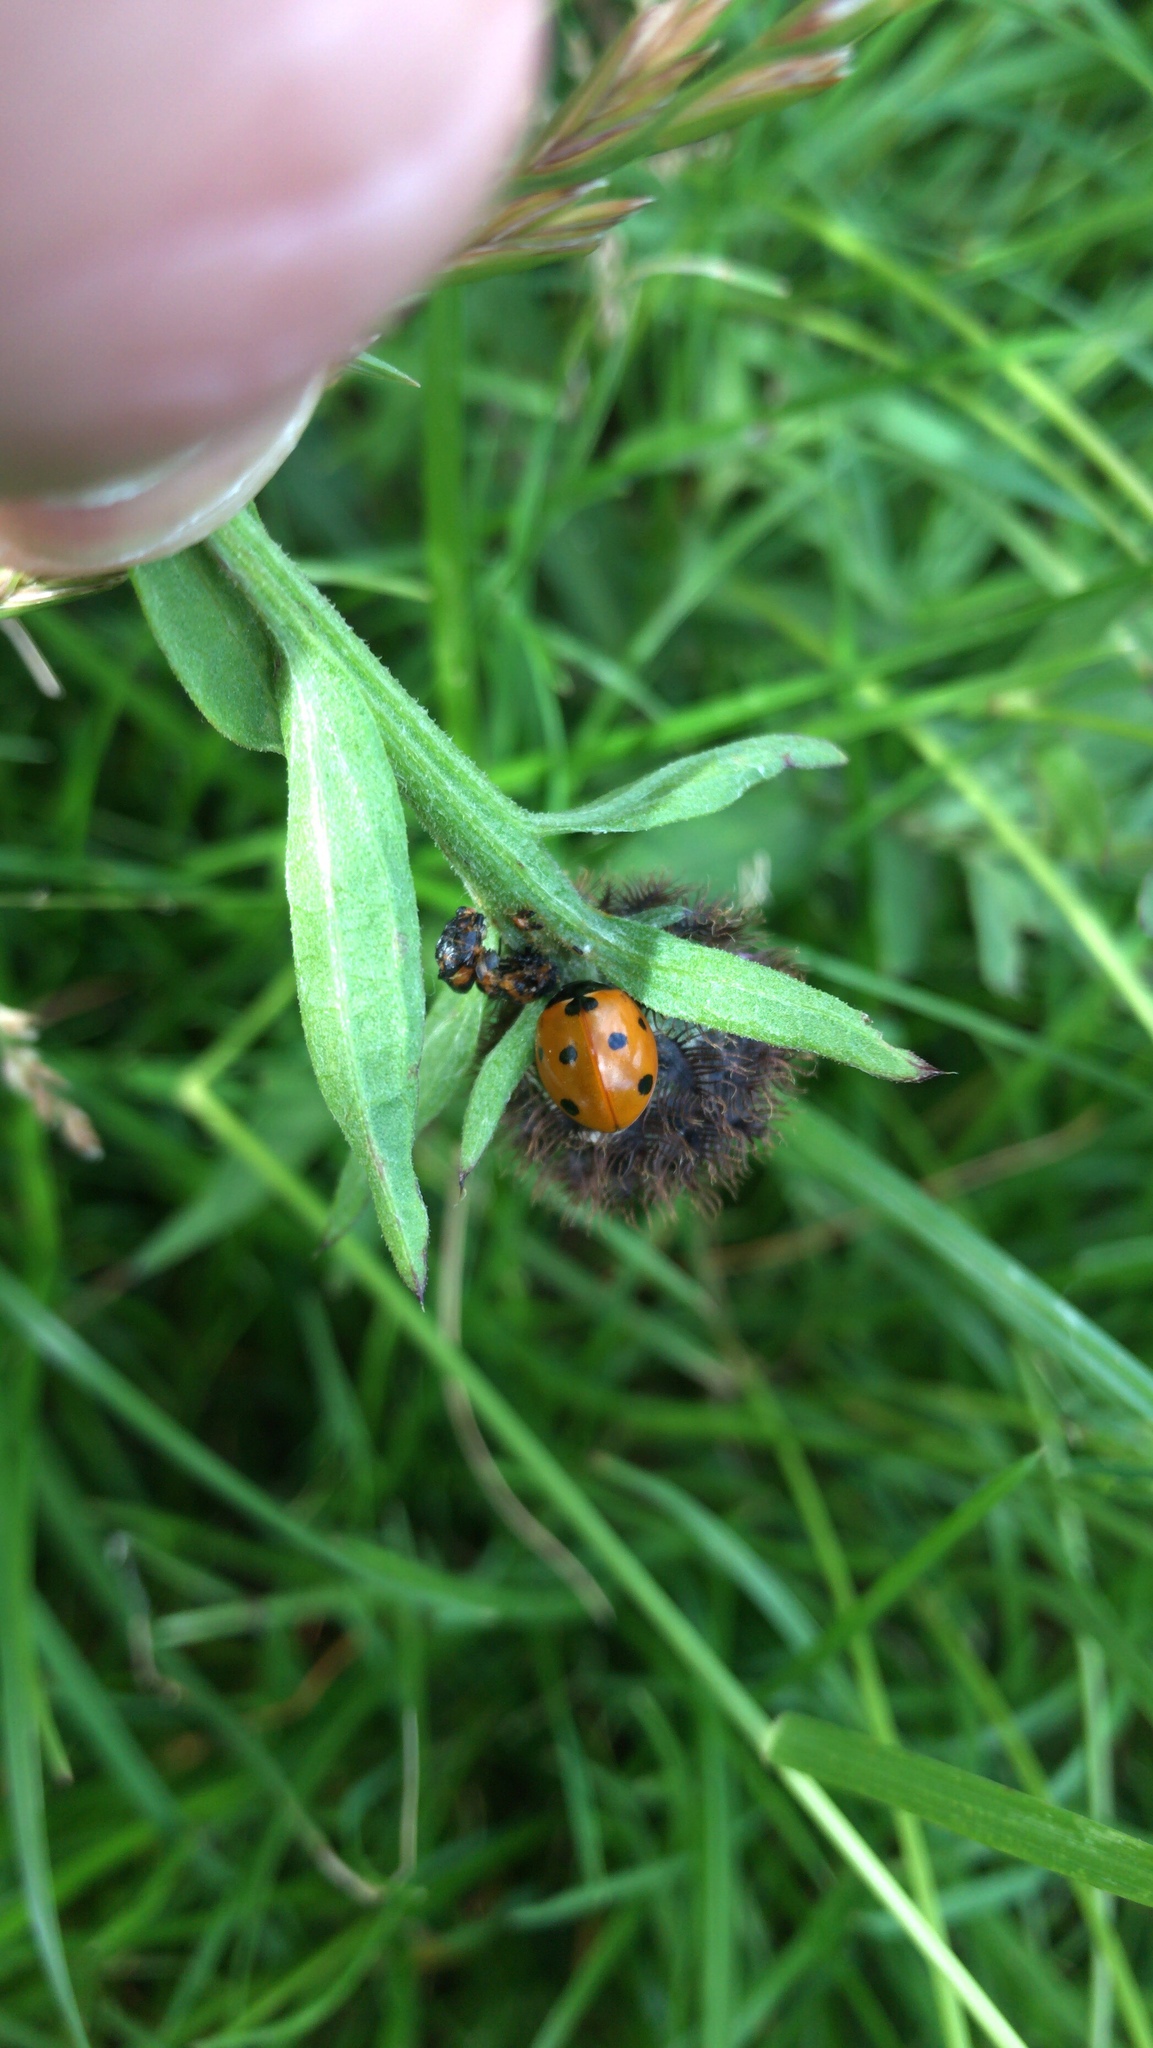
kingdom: Animalia
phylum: Arthropoda
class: Insecta
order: Coleoptera
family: Coccinellidae
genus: Coccinella
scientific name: Coccinella septempunctata
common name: Sevenspotted lady beetle
